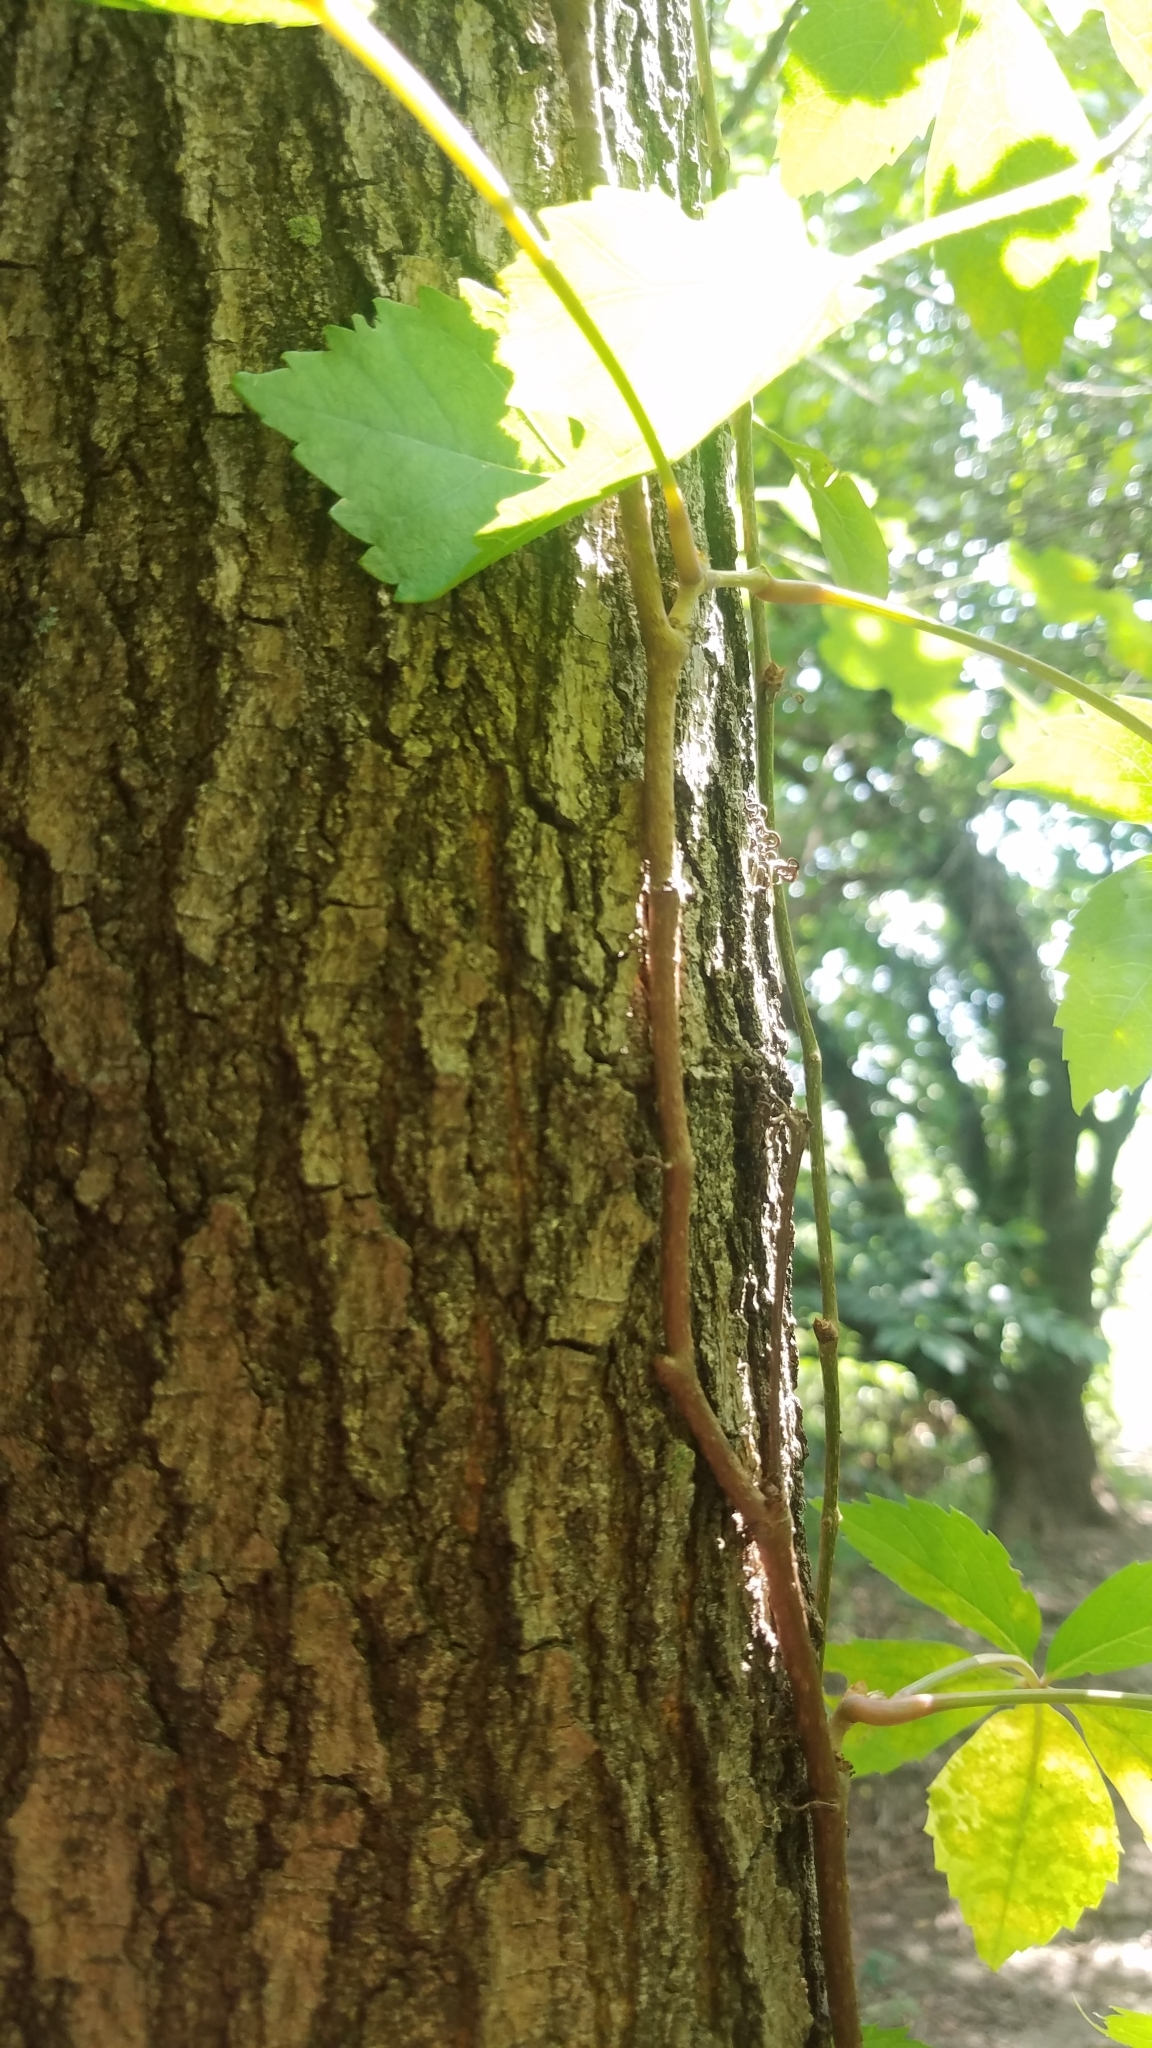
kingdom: Plantae
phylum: Tracheophyta
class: Magnoliopsida
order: Vitales
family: Vitaceae
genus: Parthenocissus
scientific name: Parthenocissus quinquefolia
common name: Virginia-creeper
